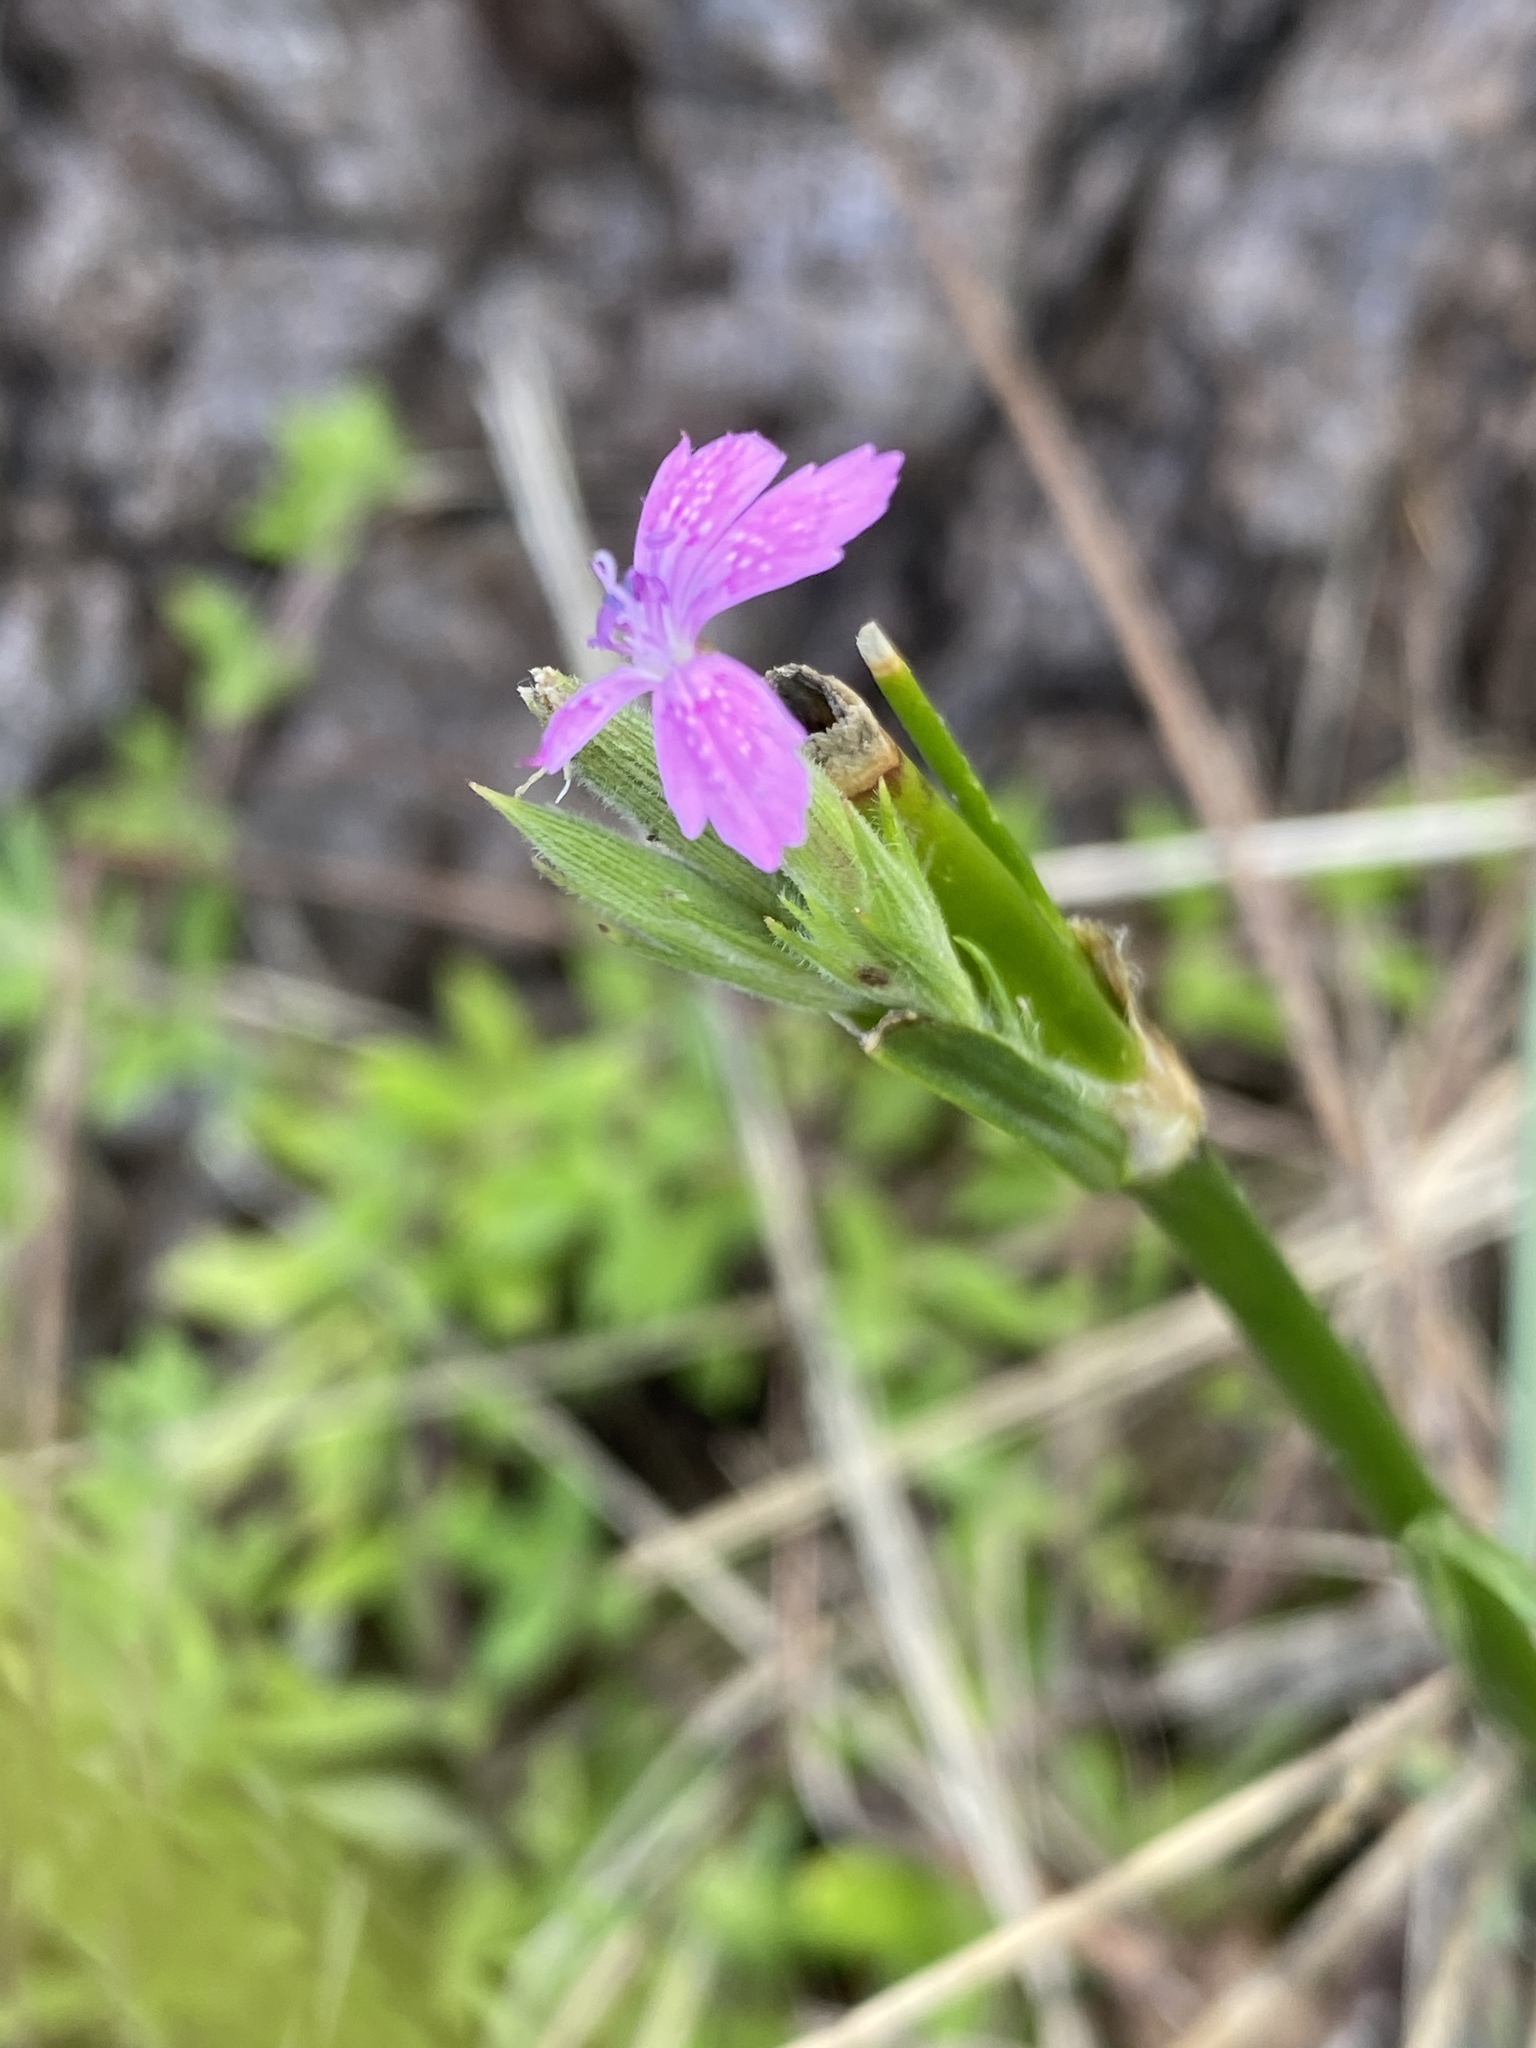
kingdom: Plantae
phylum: Tracheophyta
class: Magnoliopsida
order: Caryophyllales
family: Caryophyllaceae
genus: Dianthus
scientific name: Dianthus armeria
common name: Deptford pink
